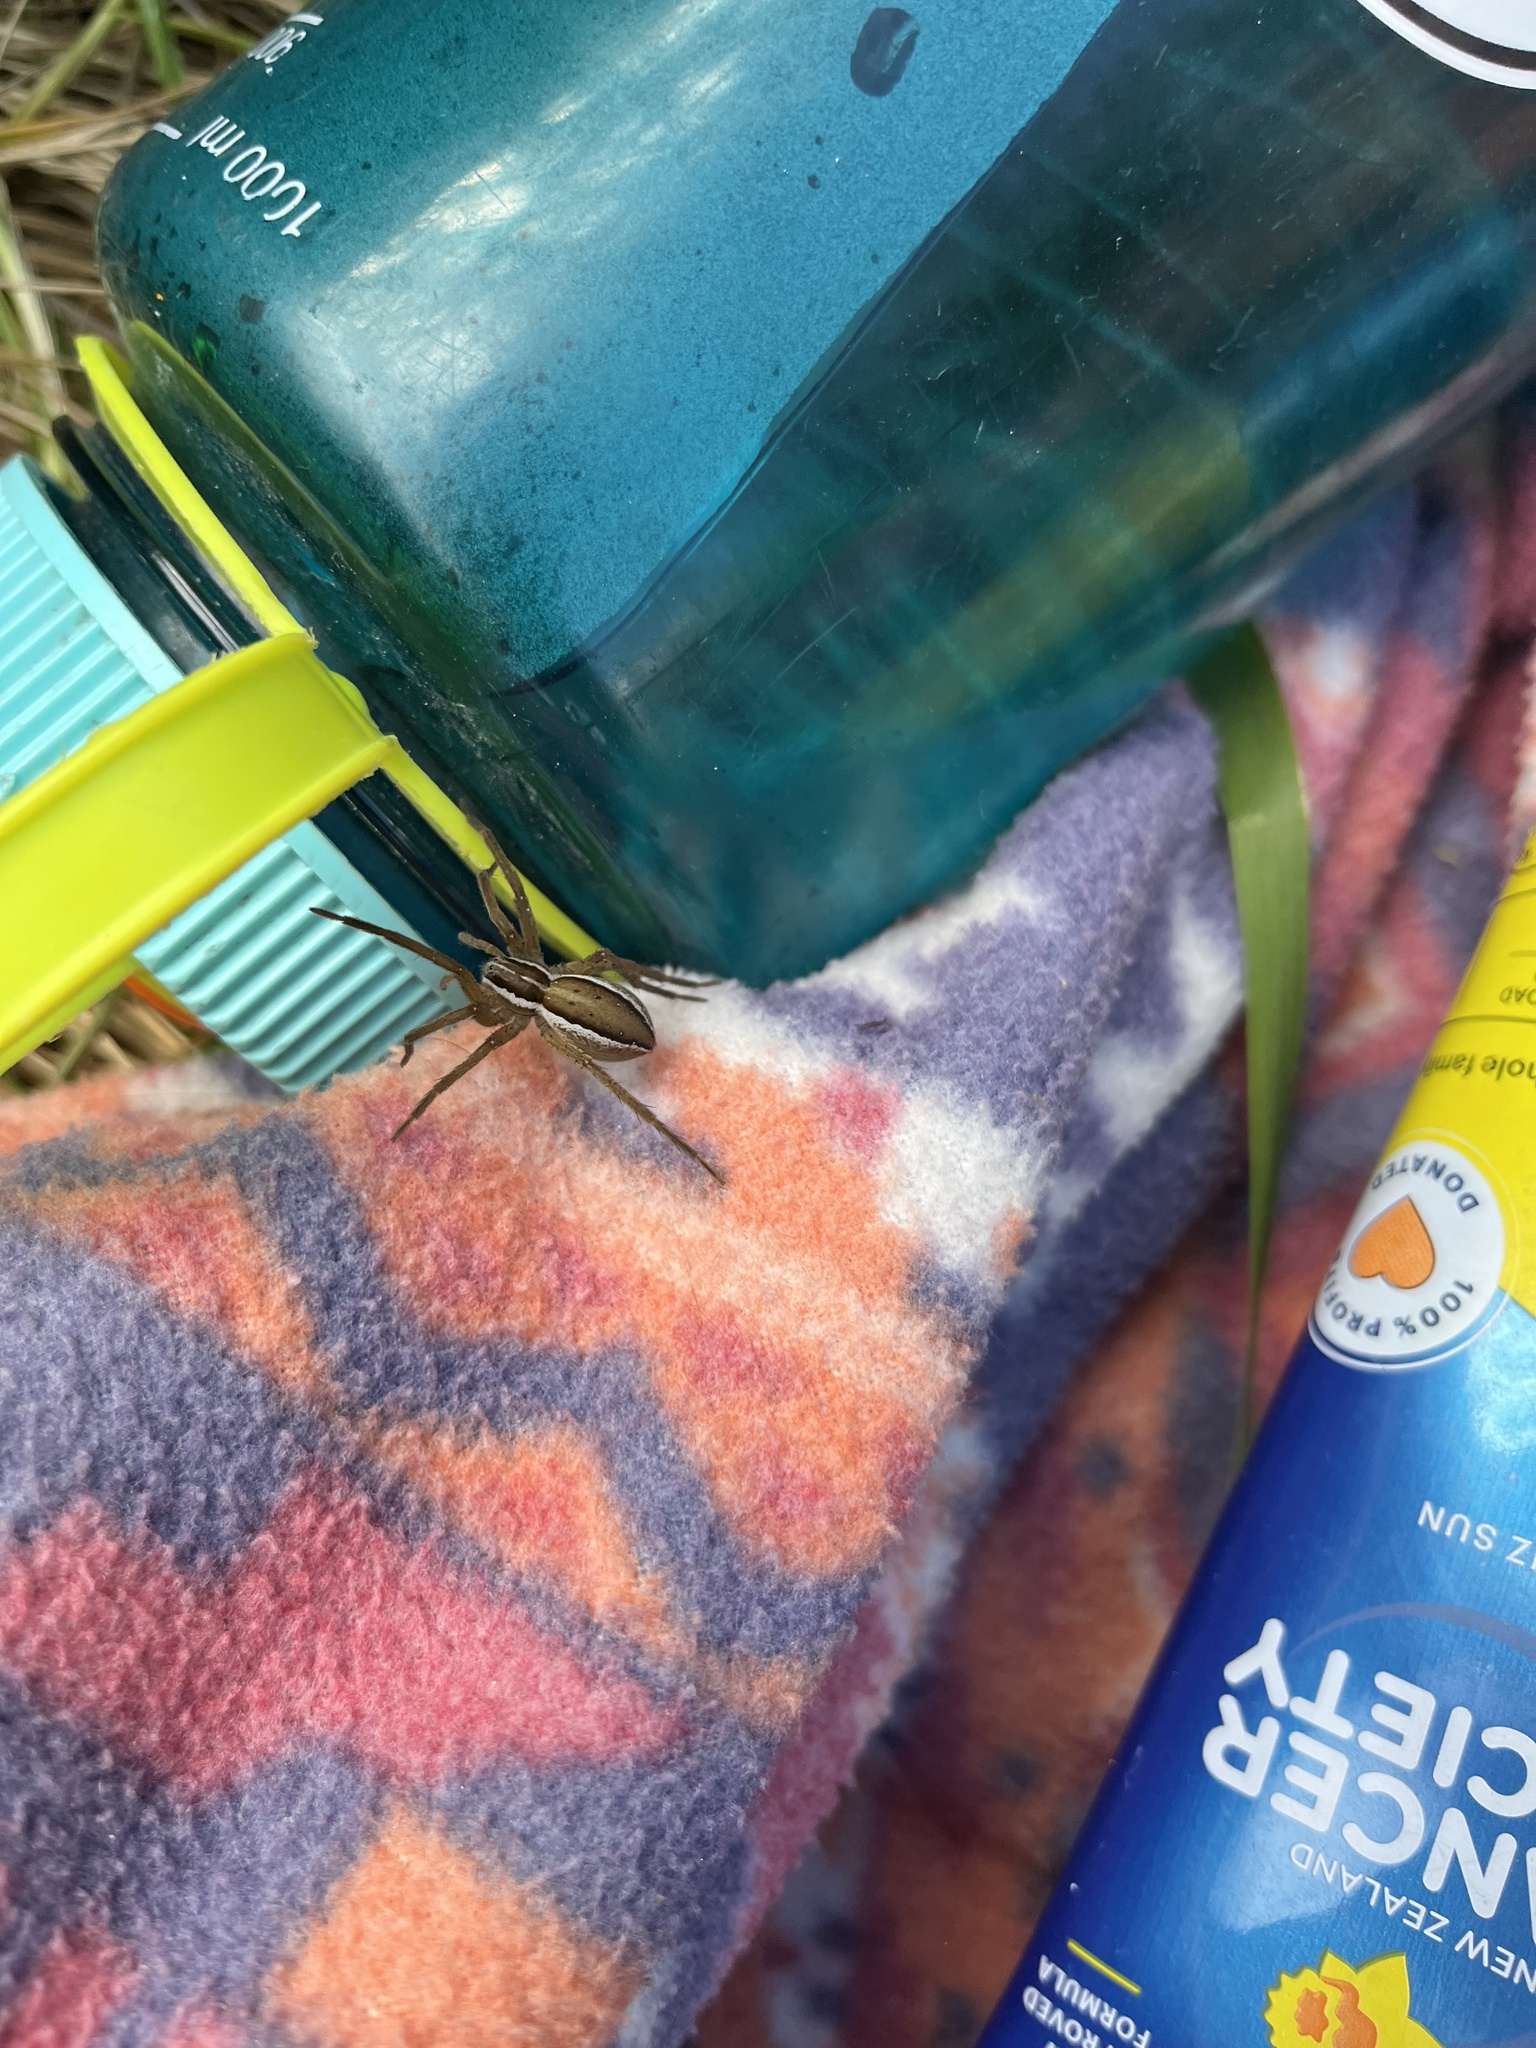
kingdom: Animalia
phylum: Arthropoda
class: Arachnida
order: Araneae
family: Pisauridae
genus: Dolomedes
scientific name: Dolomedes minor
